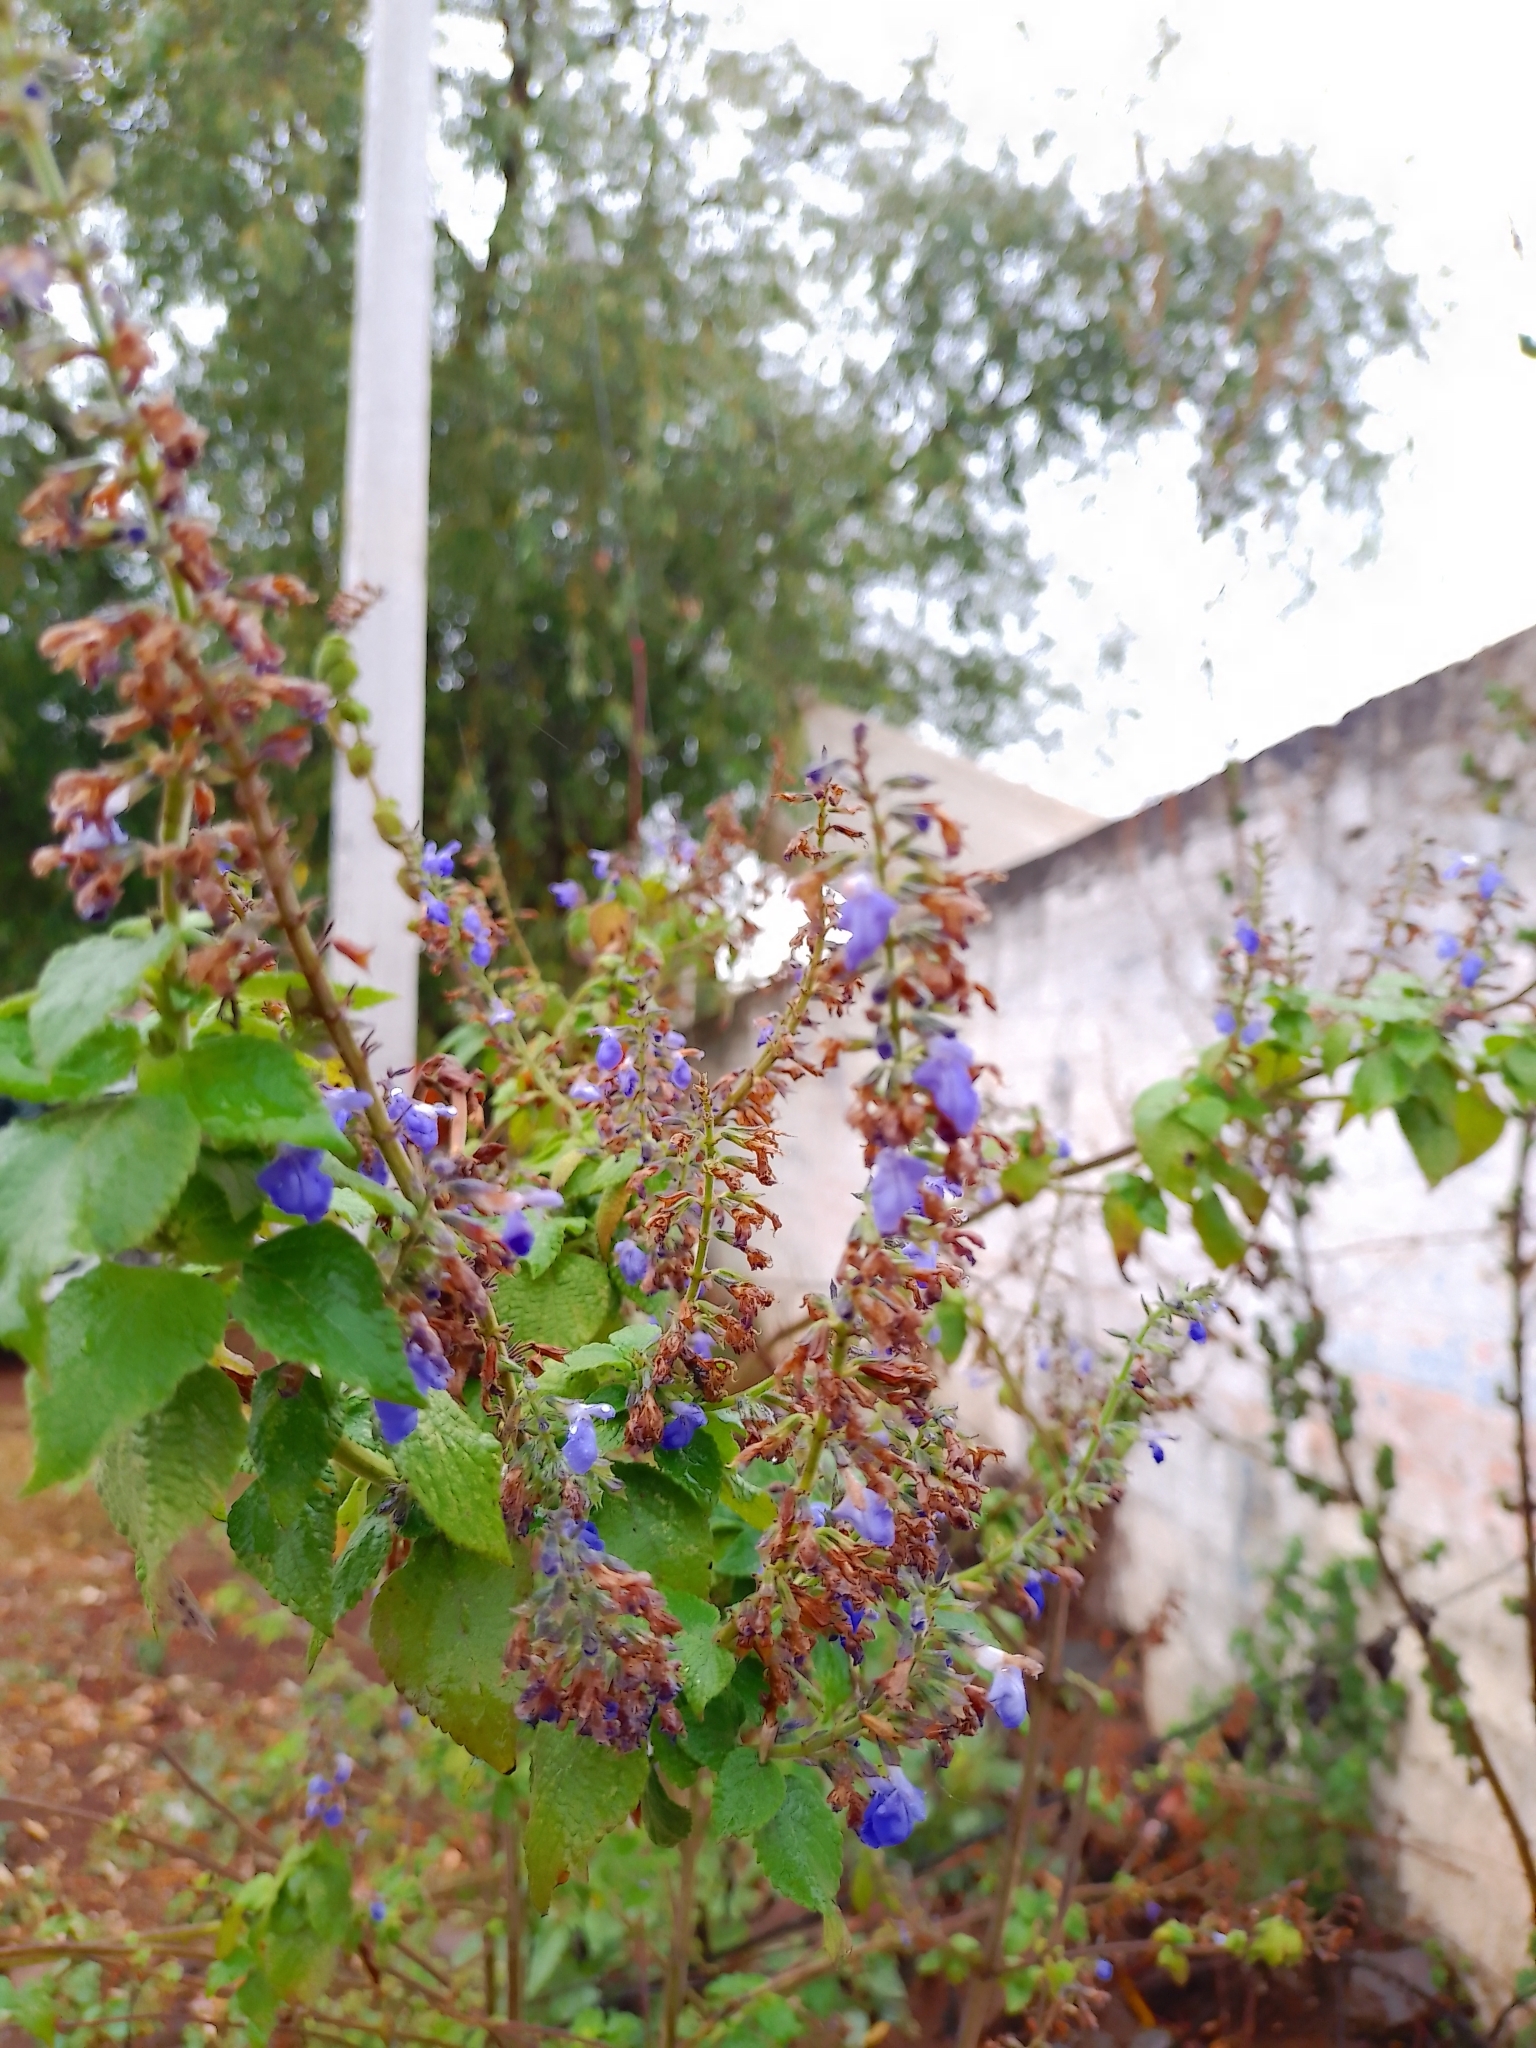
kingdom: Plantae
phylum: Tracheophyta
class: Magnoliopsida
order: Lamiales
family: Lamiaceae
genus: Salvia
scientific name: Salvia longispicata
